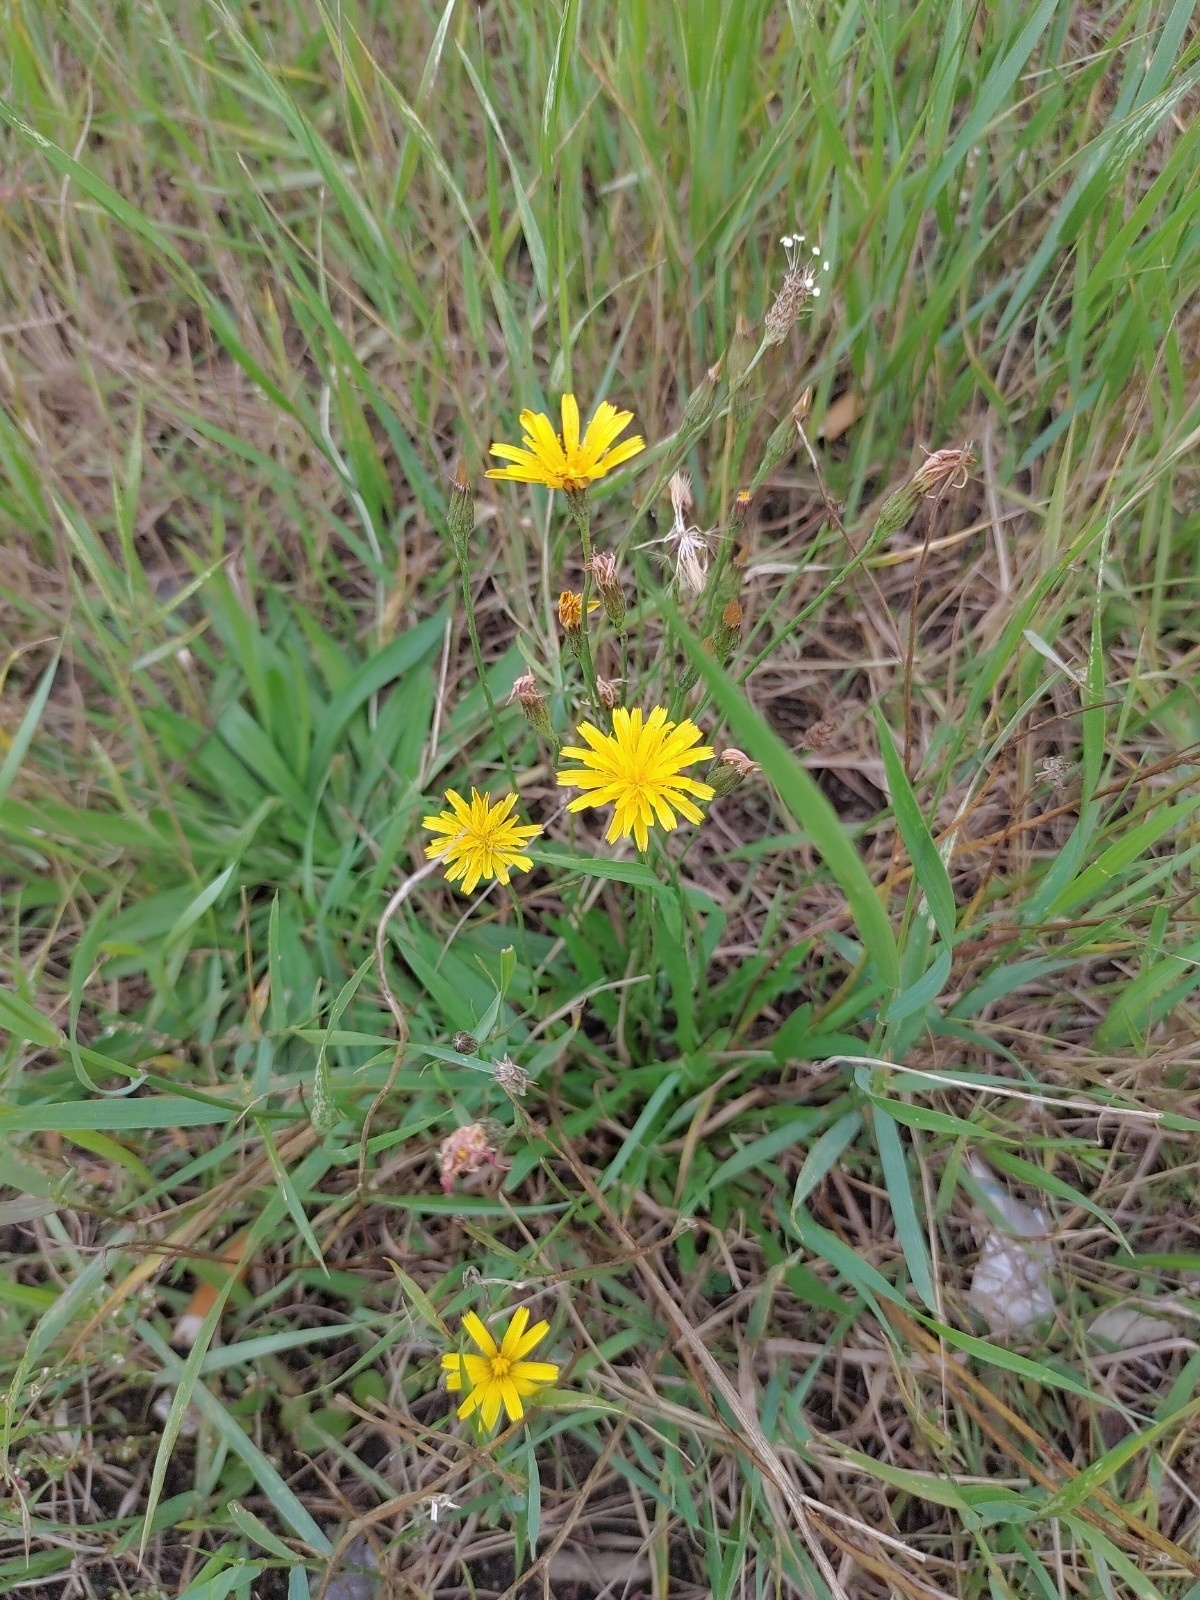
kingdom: Plantae
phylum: Tracheophyta
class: Magnoliopsida
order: Asterales
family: Asteraceae
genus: Scorzoneroides
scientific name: Scorzoneroides autumnalis
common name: Autumn hawkbit
